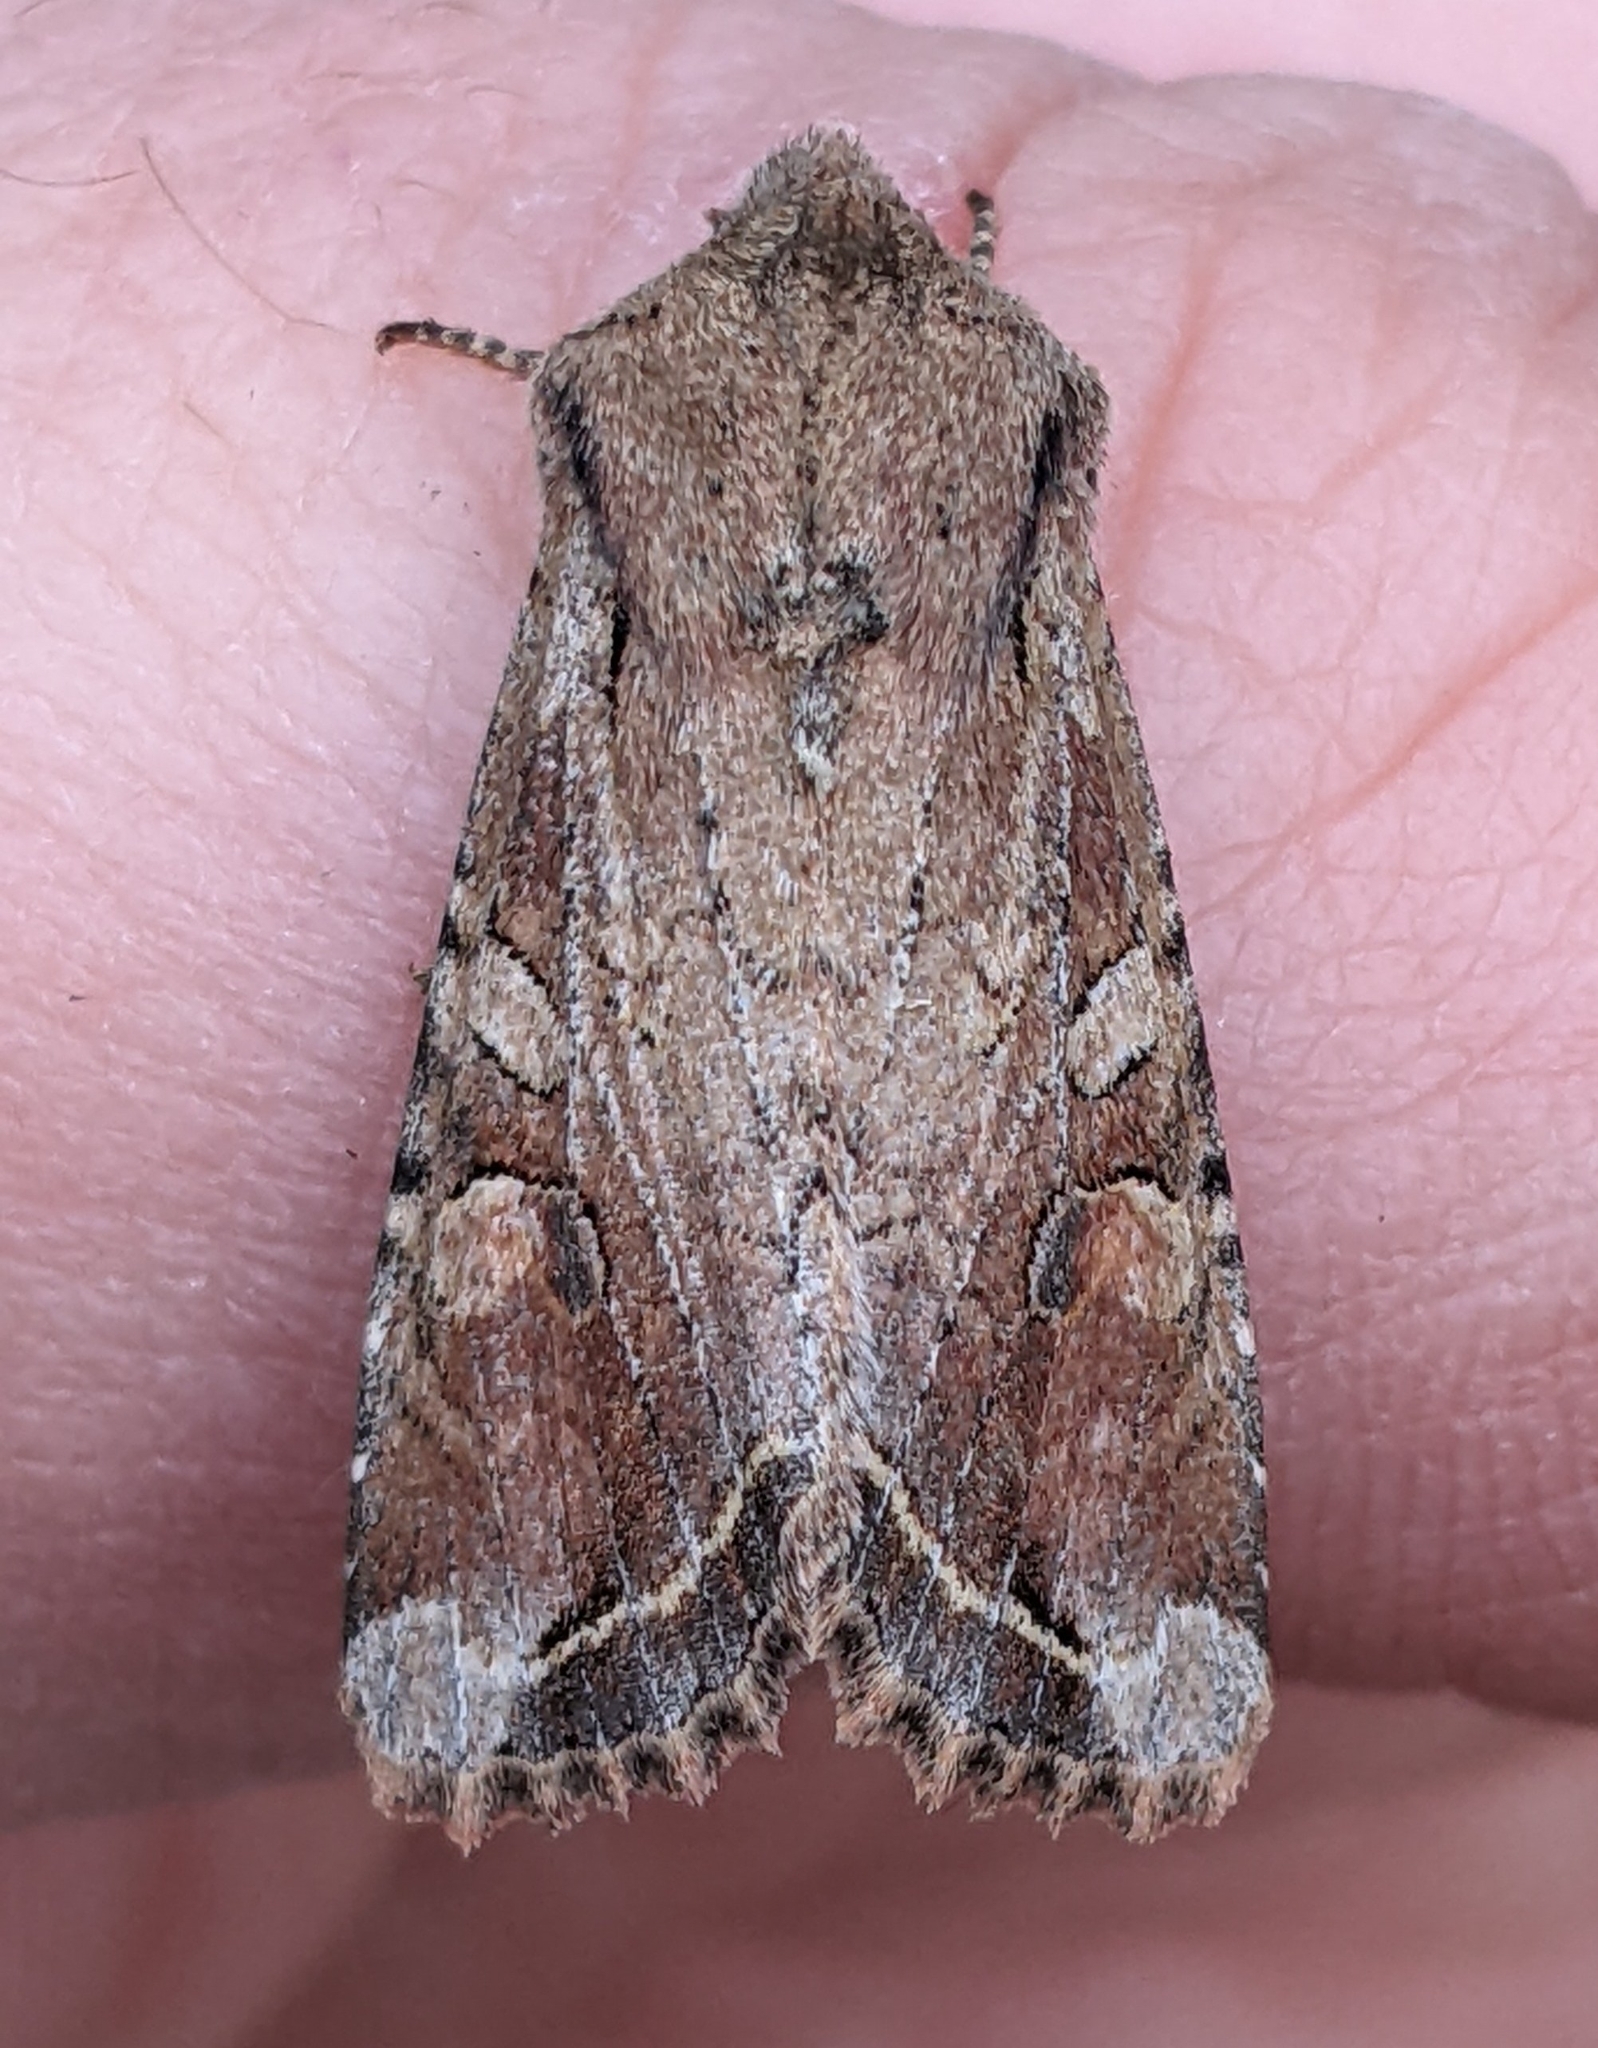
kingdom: Animalia
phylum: Arthropoda
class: Insecta
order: Lepidoptera
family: Noctuidae
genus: Egira
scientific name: Egira rubrica
